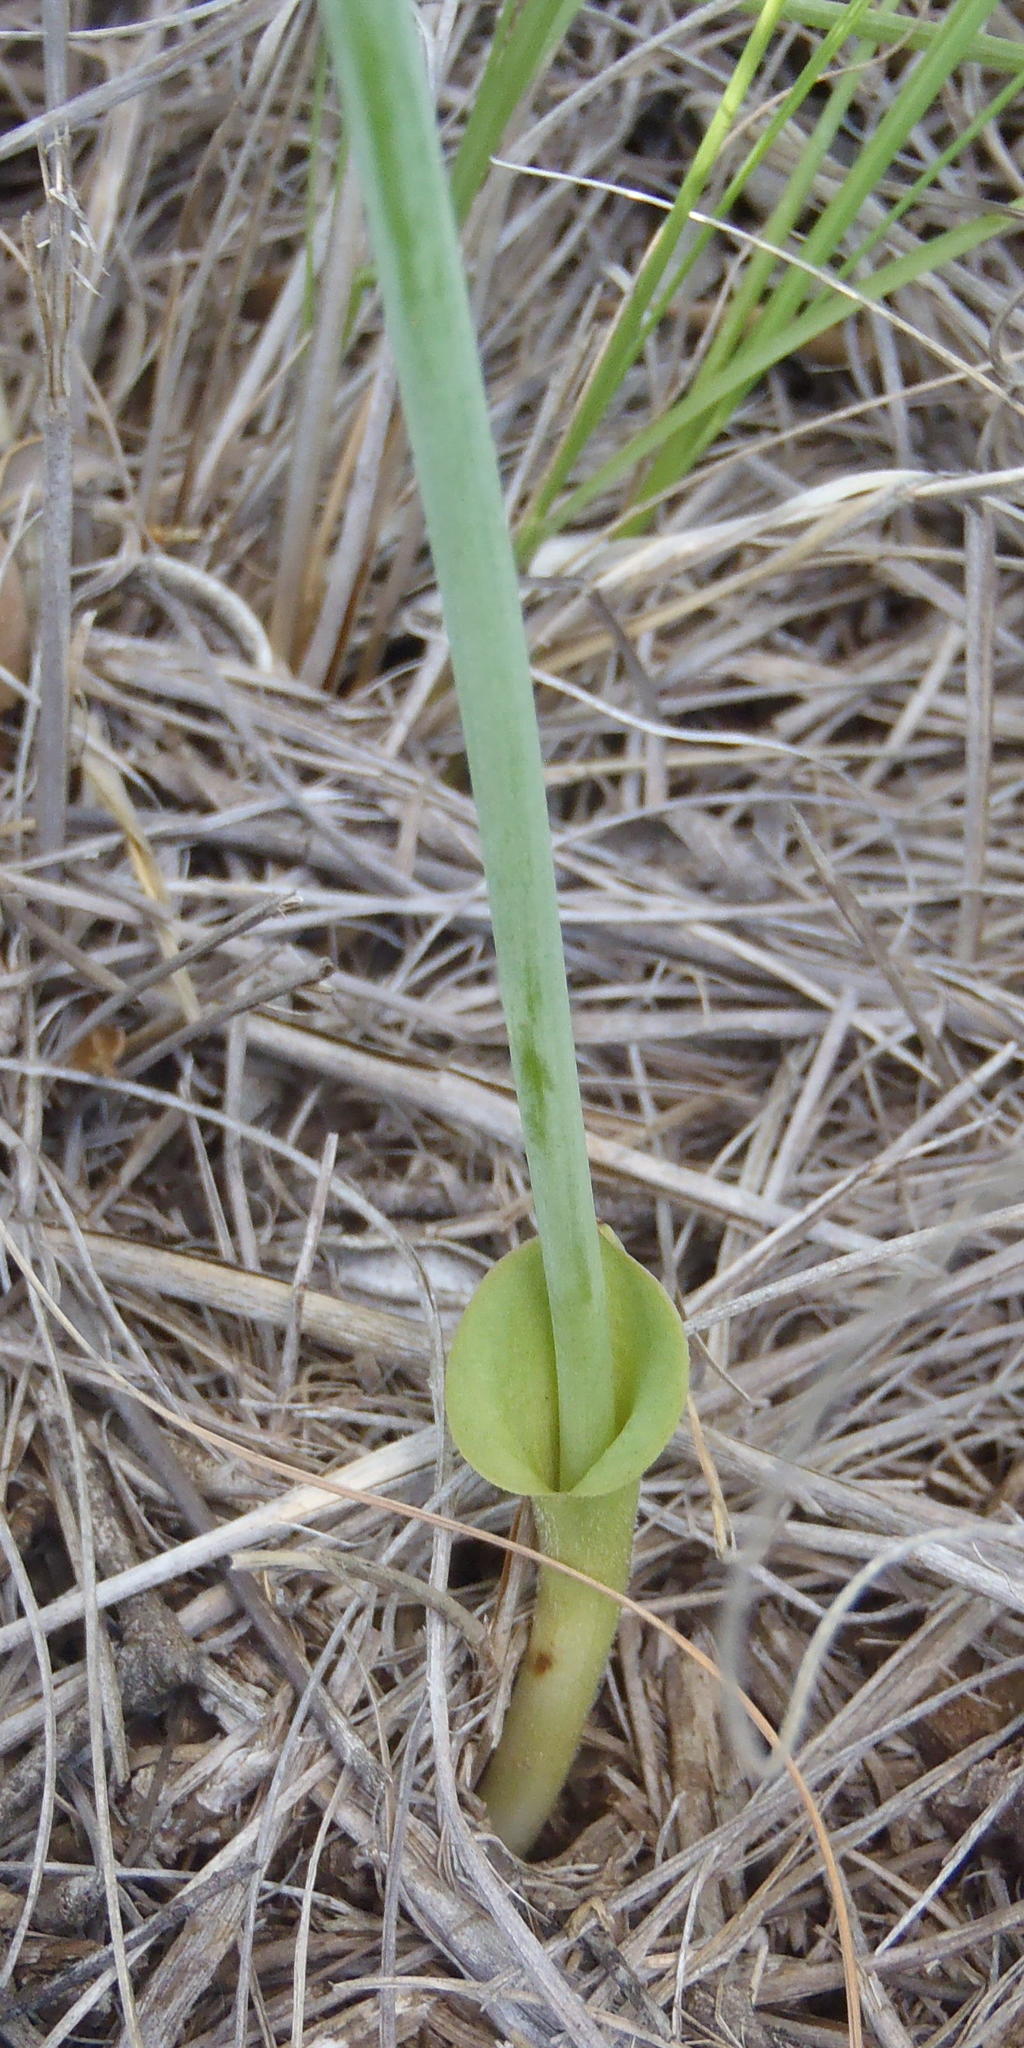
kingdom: Plantae
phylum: Tracheophyta
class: Liliopsida
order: Asparagales
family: Asparagaceae
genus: Eriospermum
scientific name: Eriospermum kiboense
